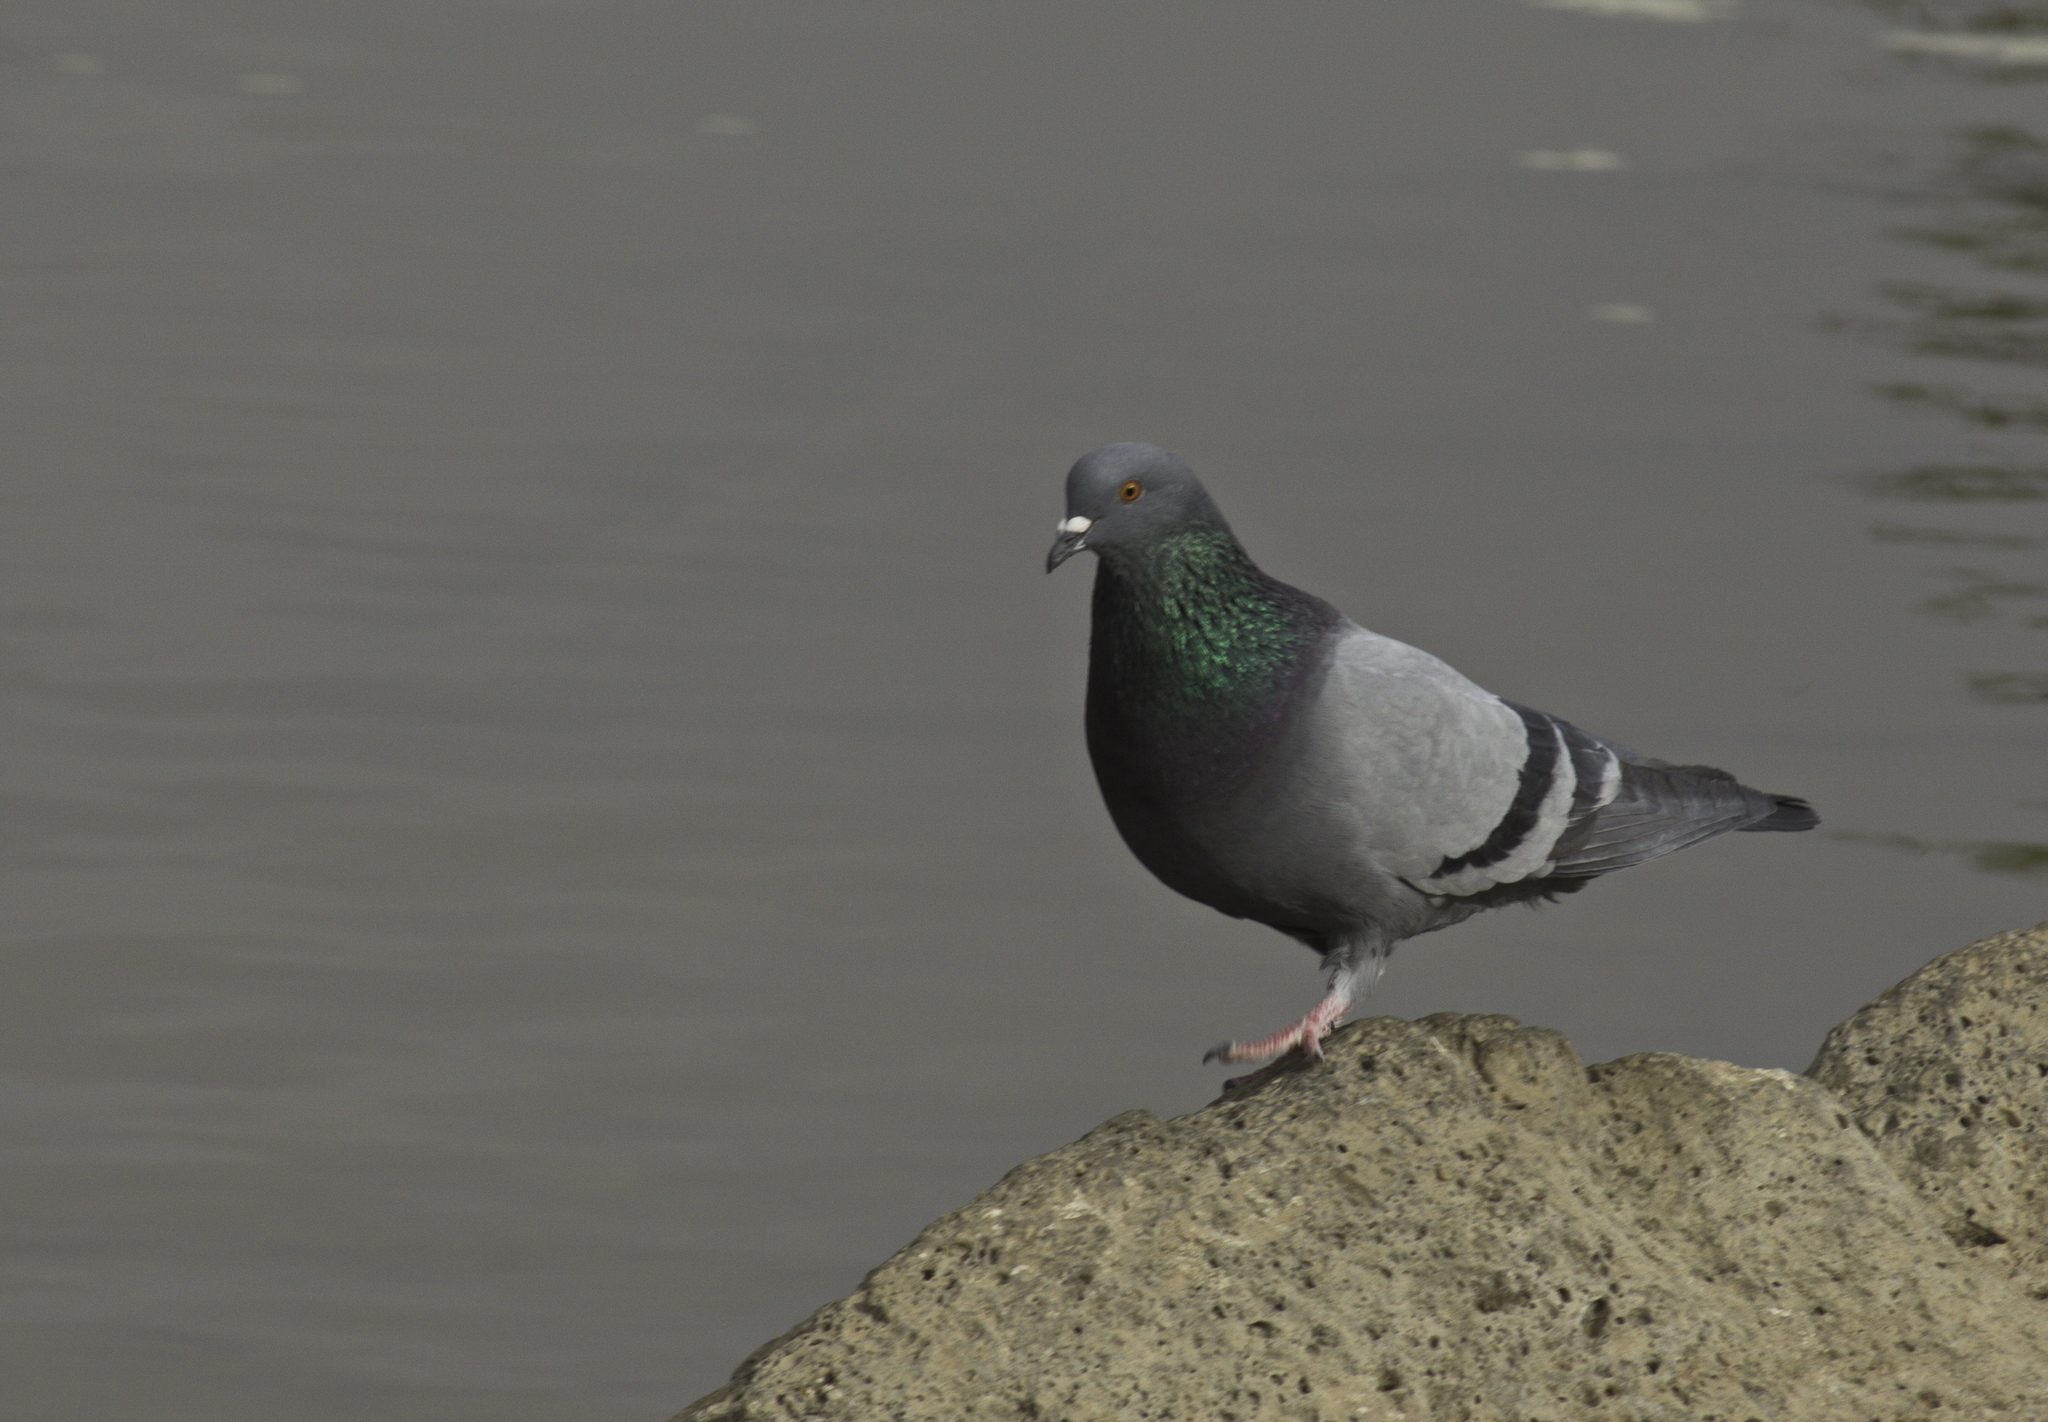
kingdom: Animalia
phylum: Chordata
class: Aves
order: Columbiformes
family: Columbidae
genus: Columba
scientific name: Columba livia
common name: Rock pigeon
